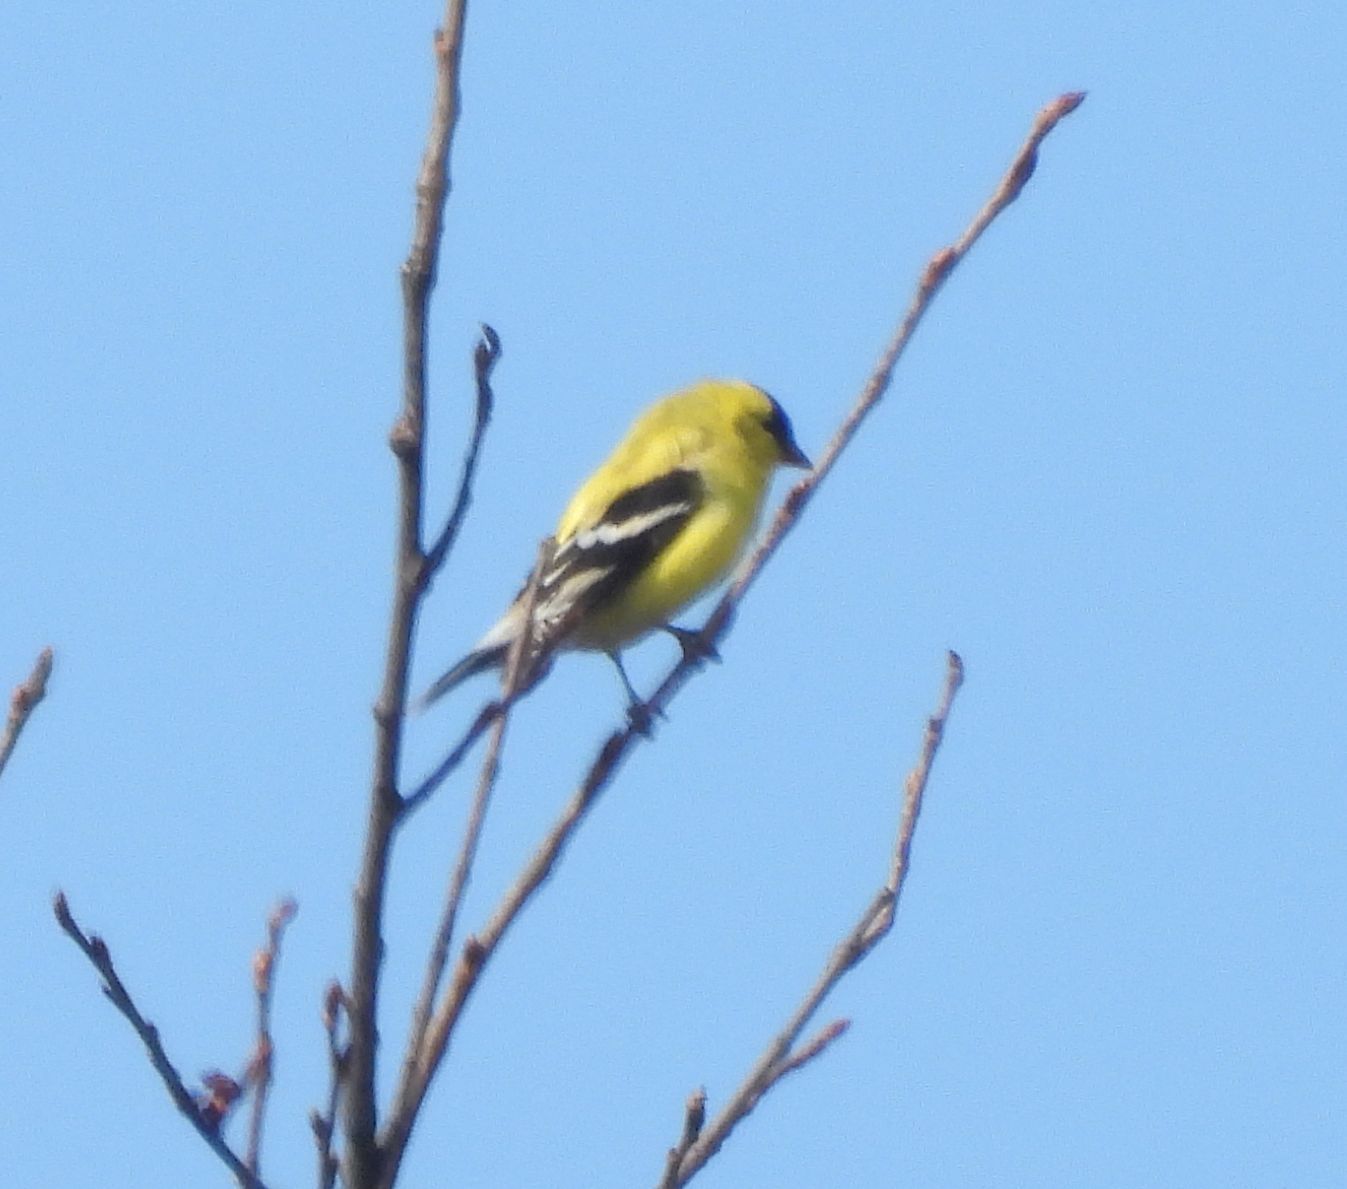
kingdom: Animalia
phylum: Chordata
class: Aves
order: Passeriformes
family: Fringillidae
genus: Spinus
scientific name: Spinus tristis
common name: American goldfinch
